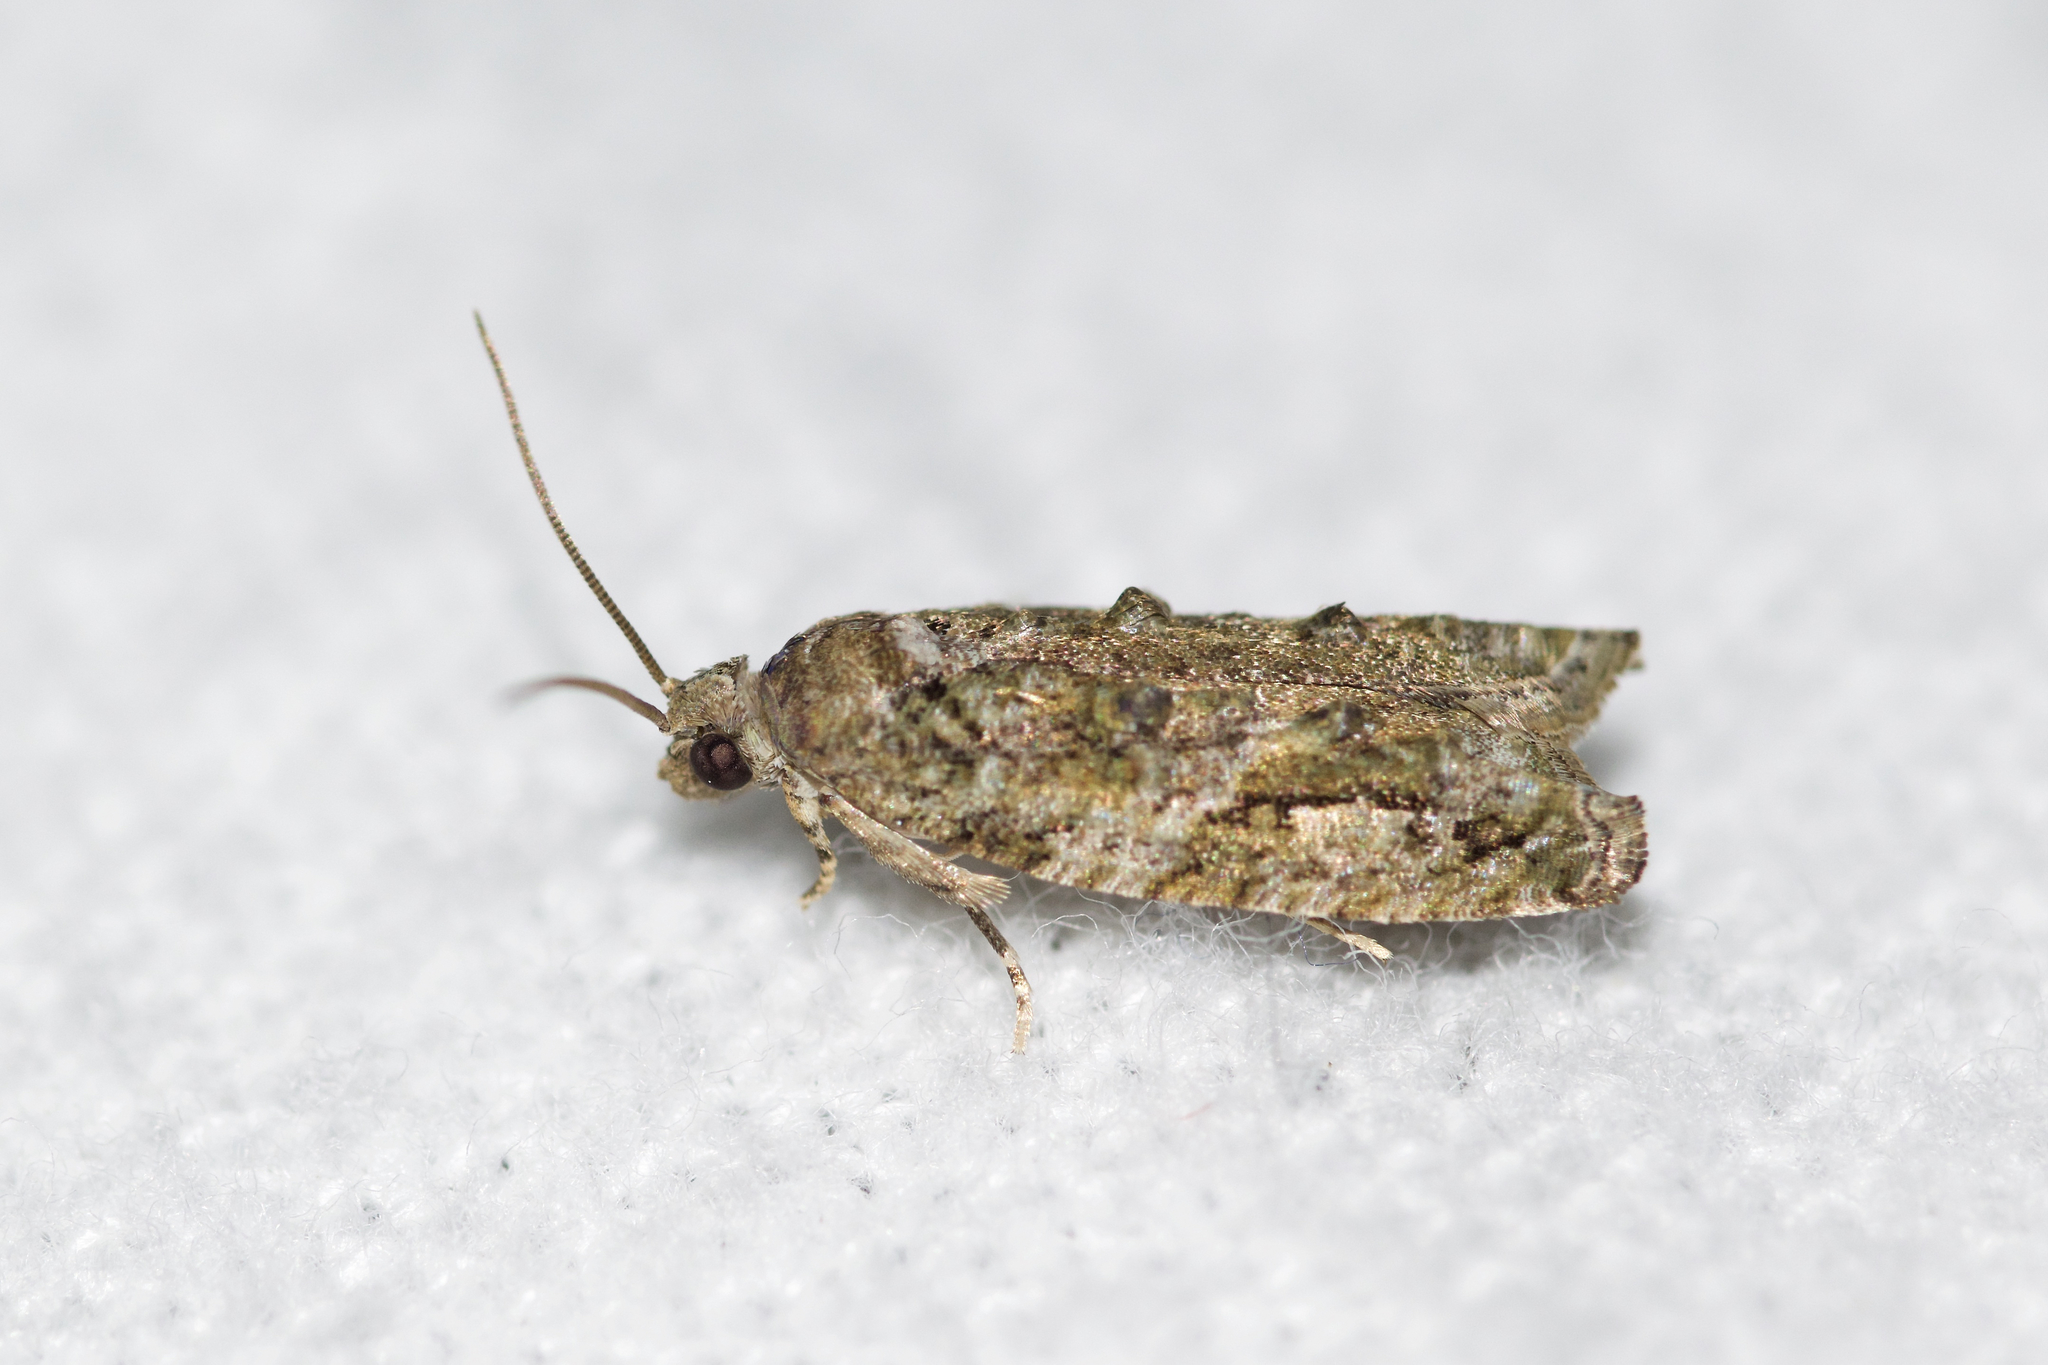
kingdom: Animalia
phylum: Arthropoda
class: Insecta
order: Lepidoptera
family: Tortricidae
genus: Proteoteras
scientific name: Proteoteras aesculana
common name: Maple twig borer moth
